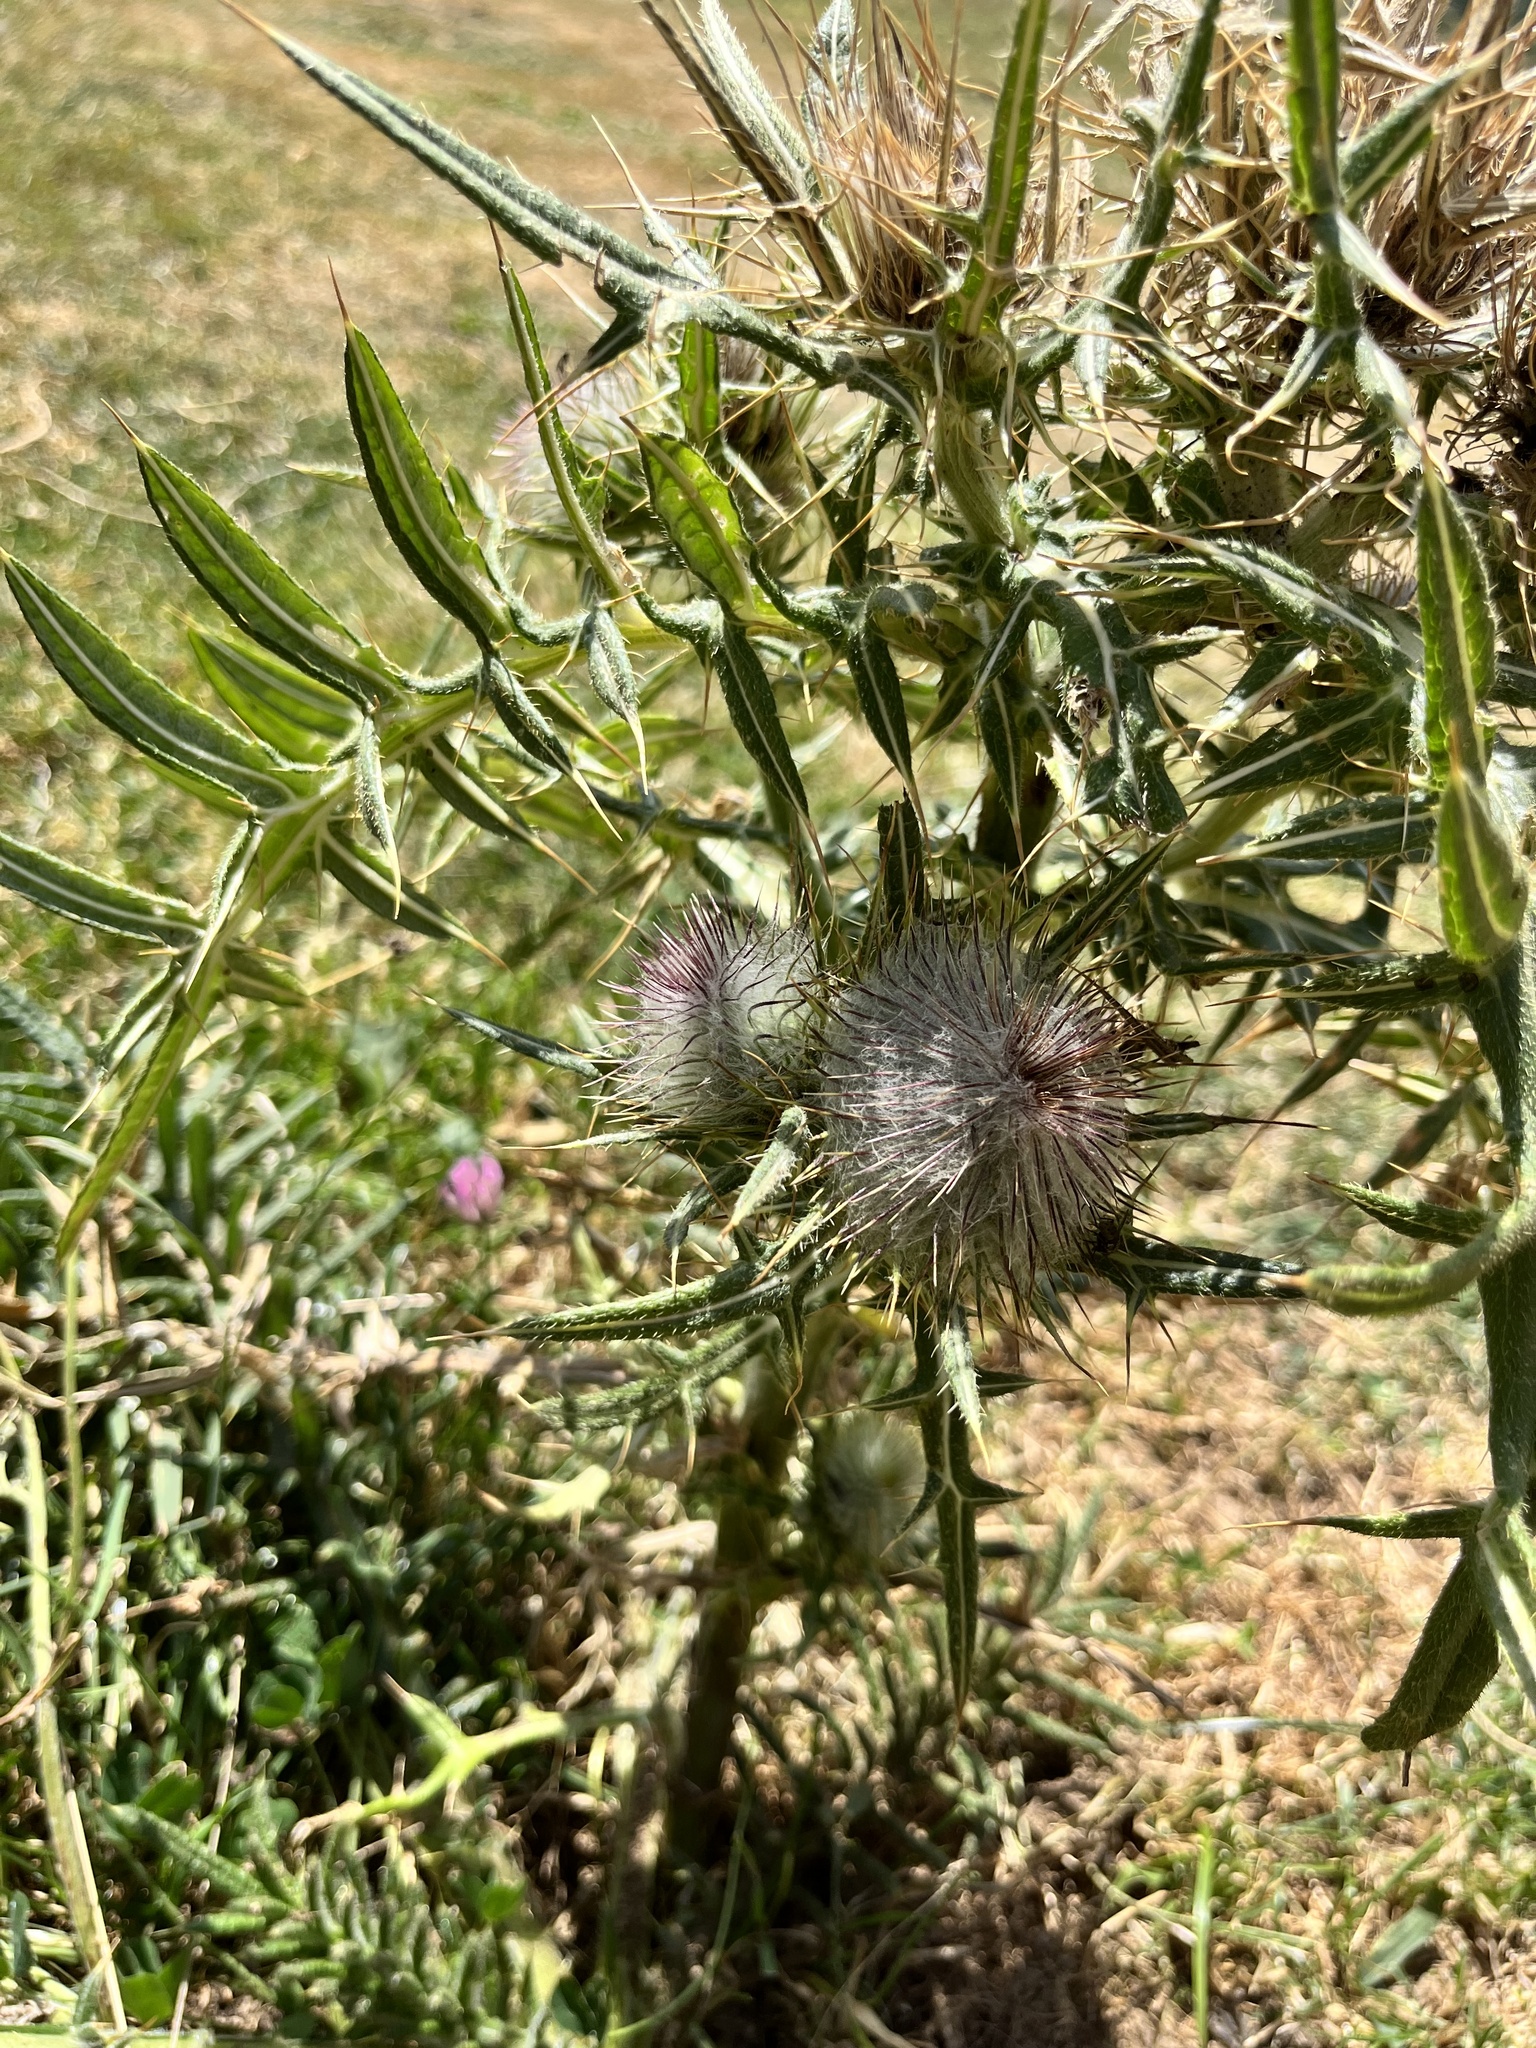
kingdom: Plantae
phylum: Tracheophyta
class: Magnoliopsida
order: Asterales
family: Asteraceae
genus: Lophiolepis
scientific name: Lophiolepis eriophora
